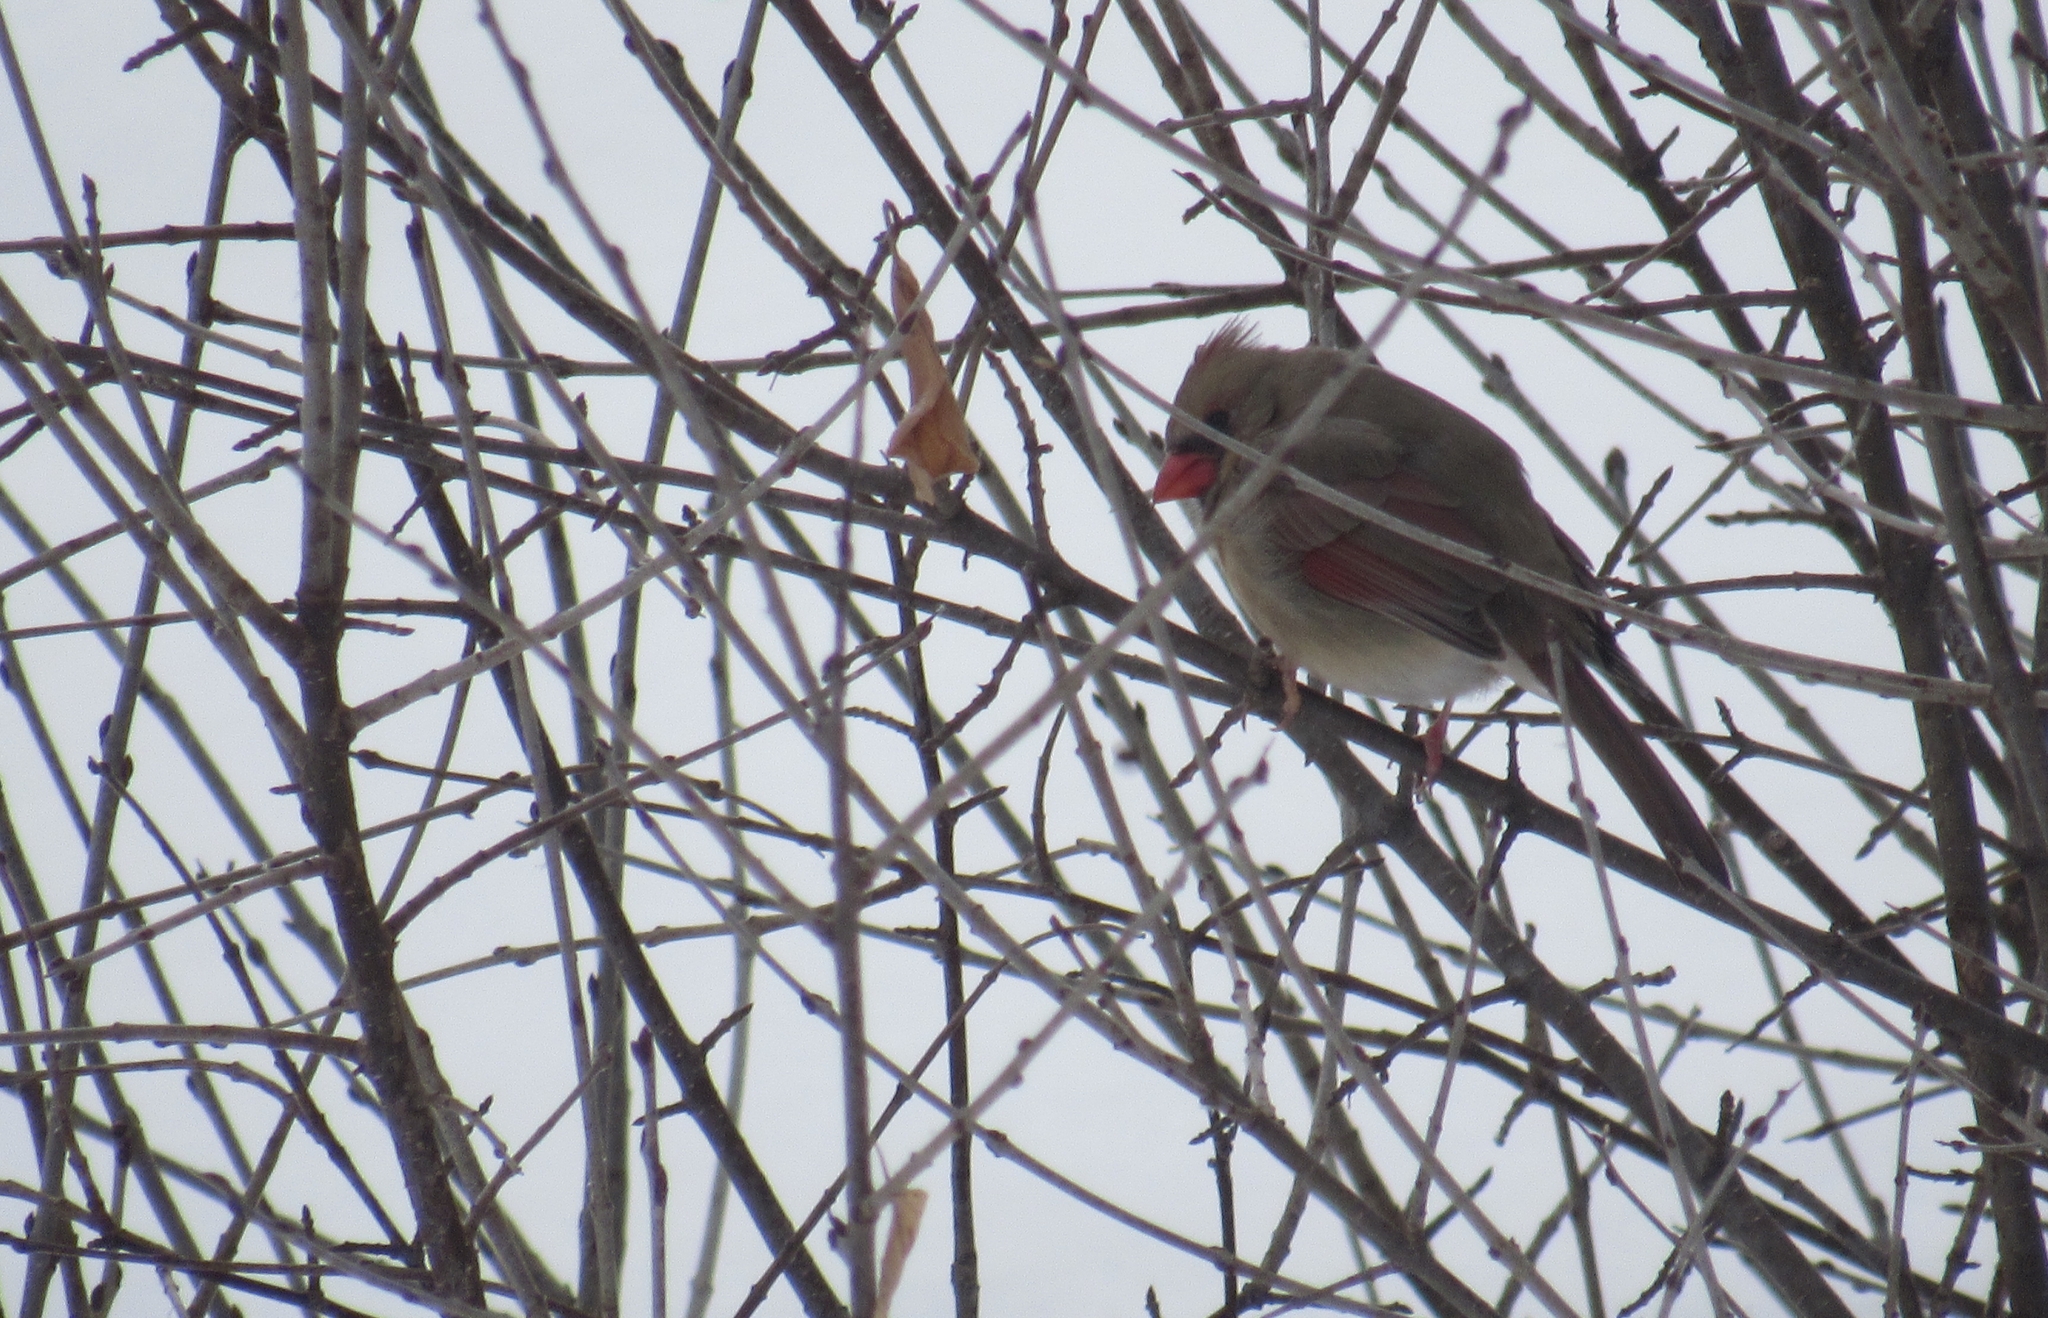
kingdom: Animalia
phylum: Chordata
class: Aves
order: Passeriformes
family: Cardinalidae
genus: Cardinalis
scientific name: Cardinalis cardinalis
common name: Northern cardinal
